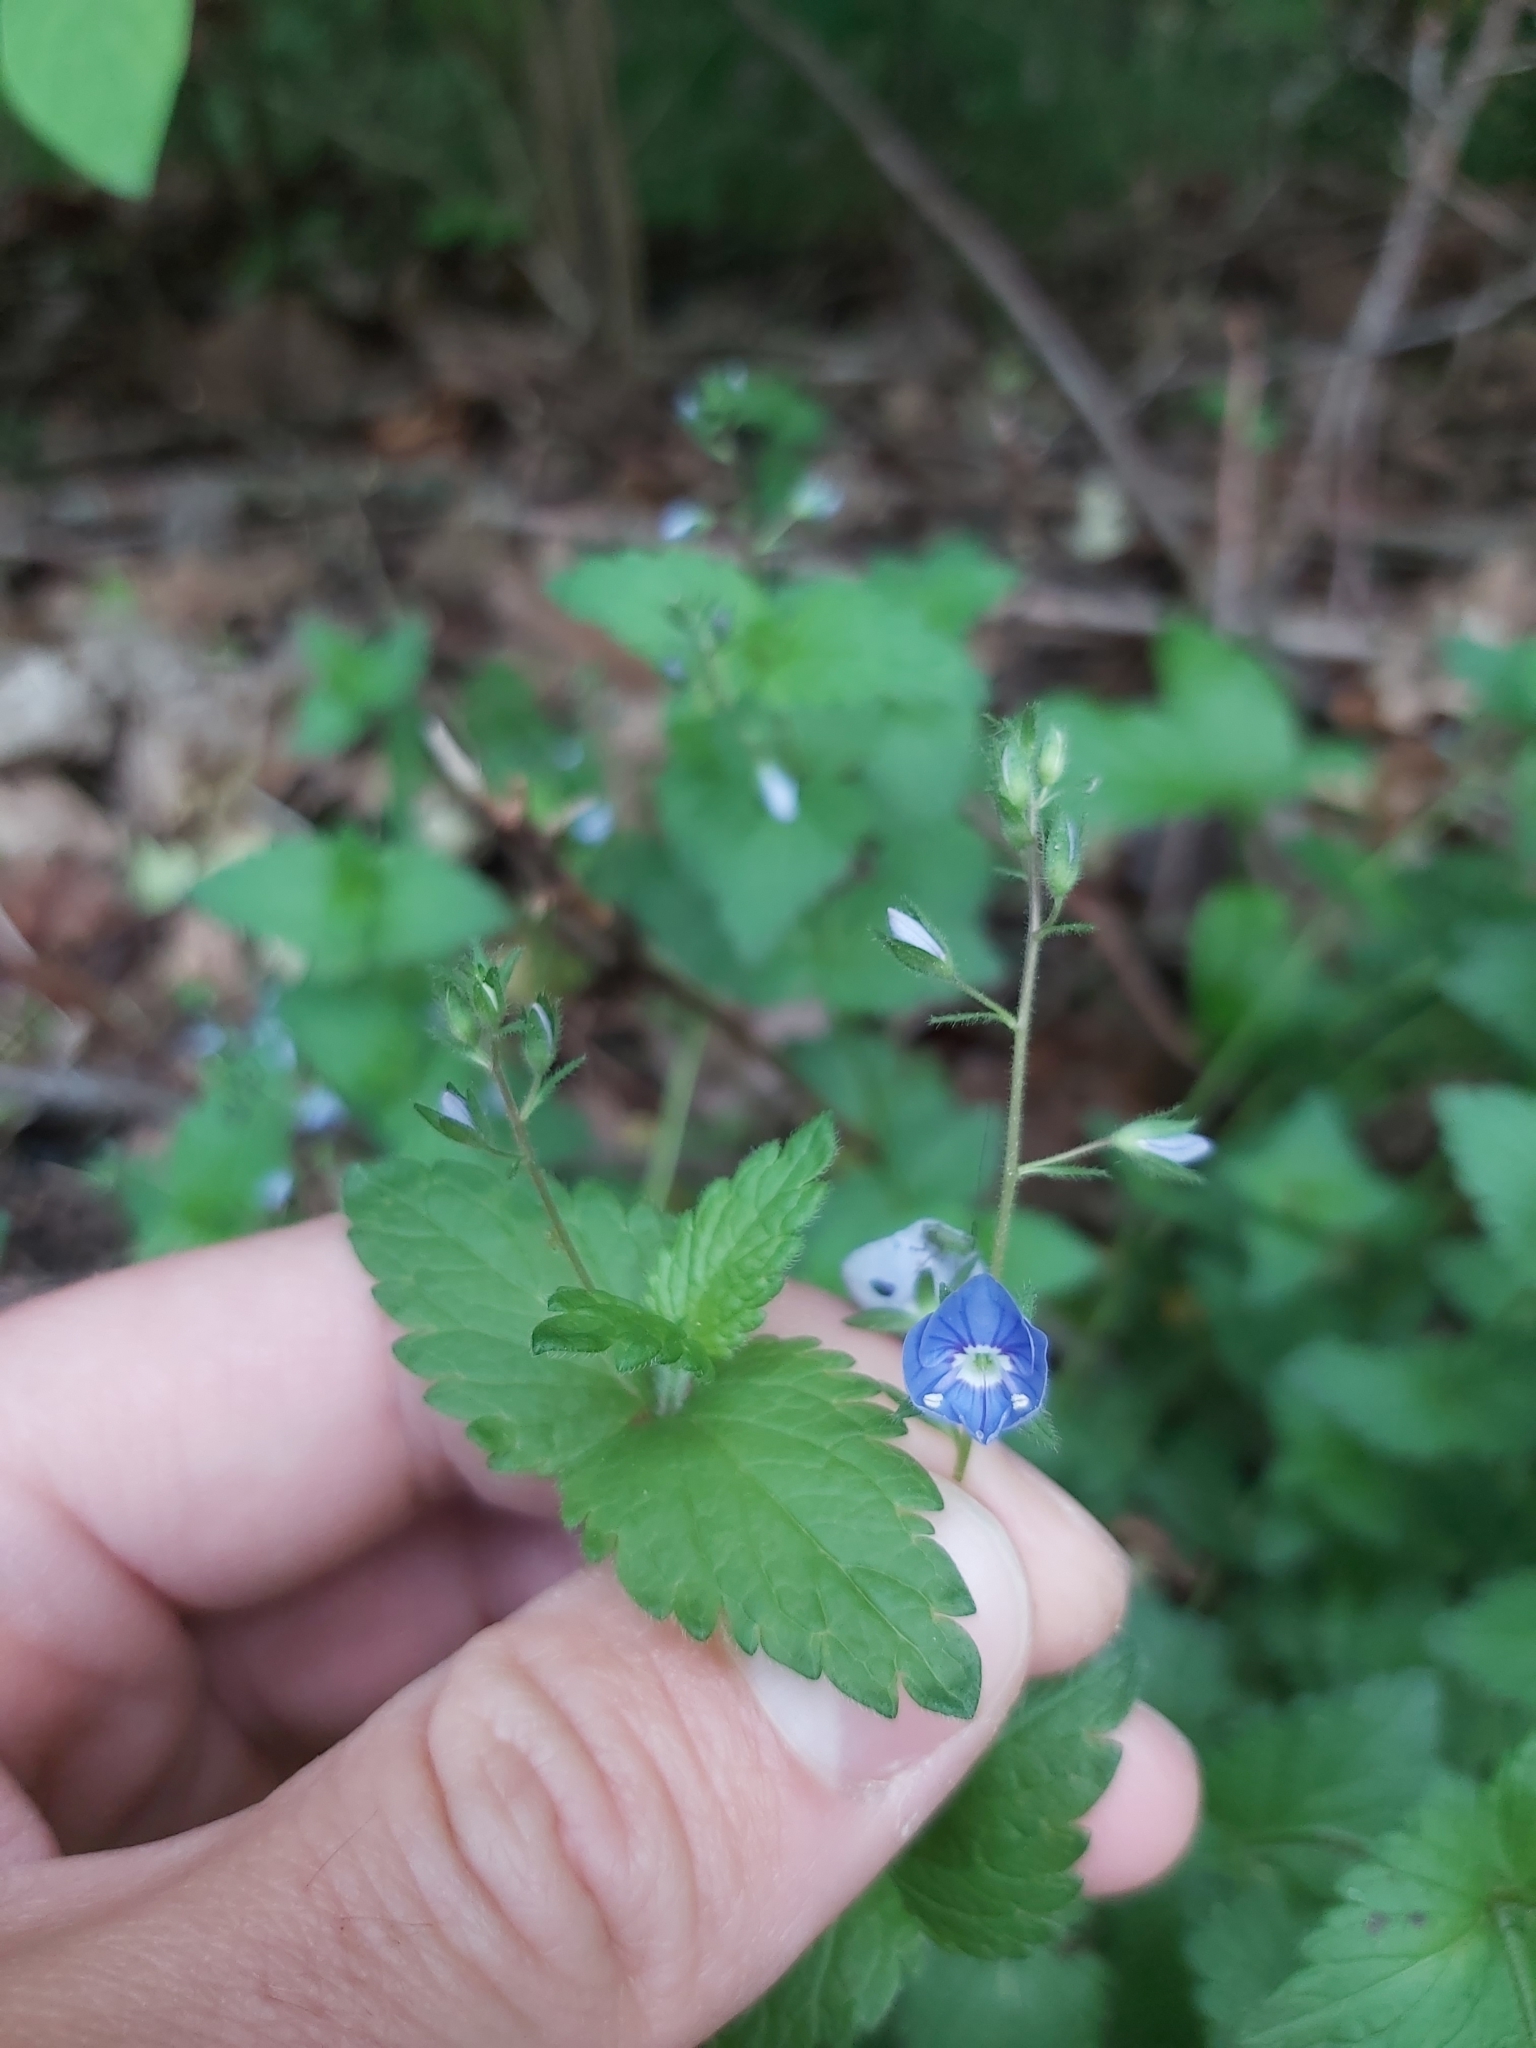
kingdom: Plantae
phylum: Tracheophyta
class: Magnoliopsida
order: Lamiales
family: Plantaginaceae
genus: Veronica
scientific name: Veronica chamaedrys
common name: Germander speedwell
